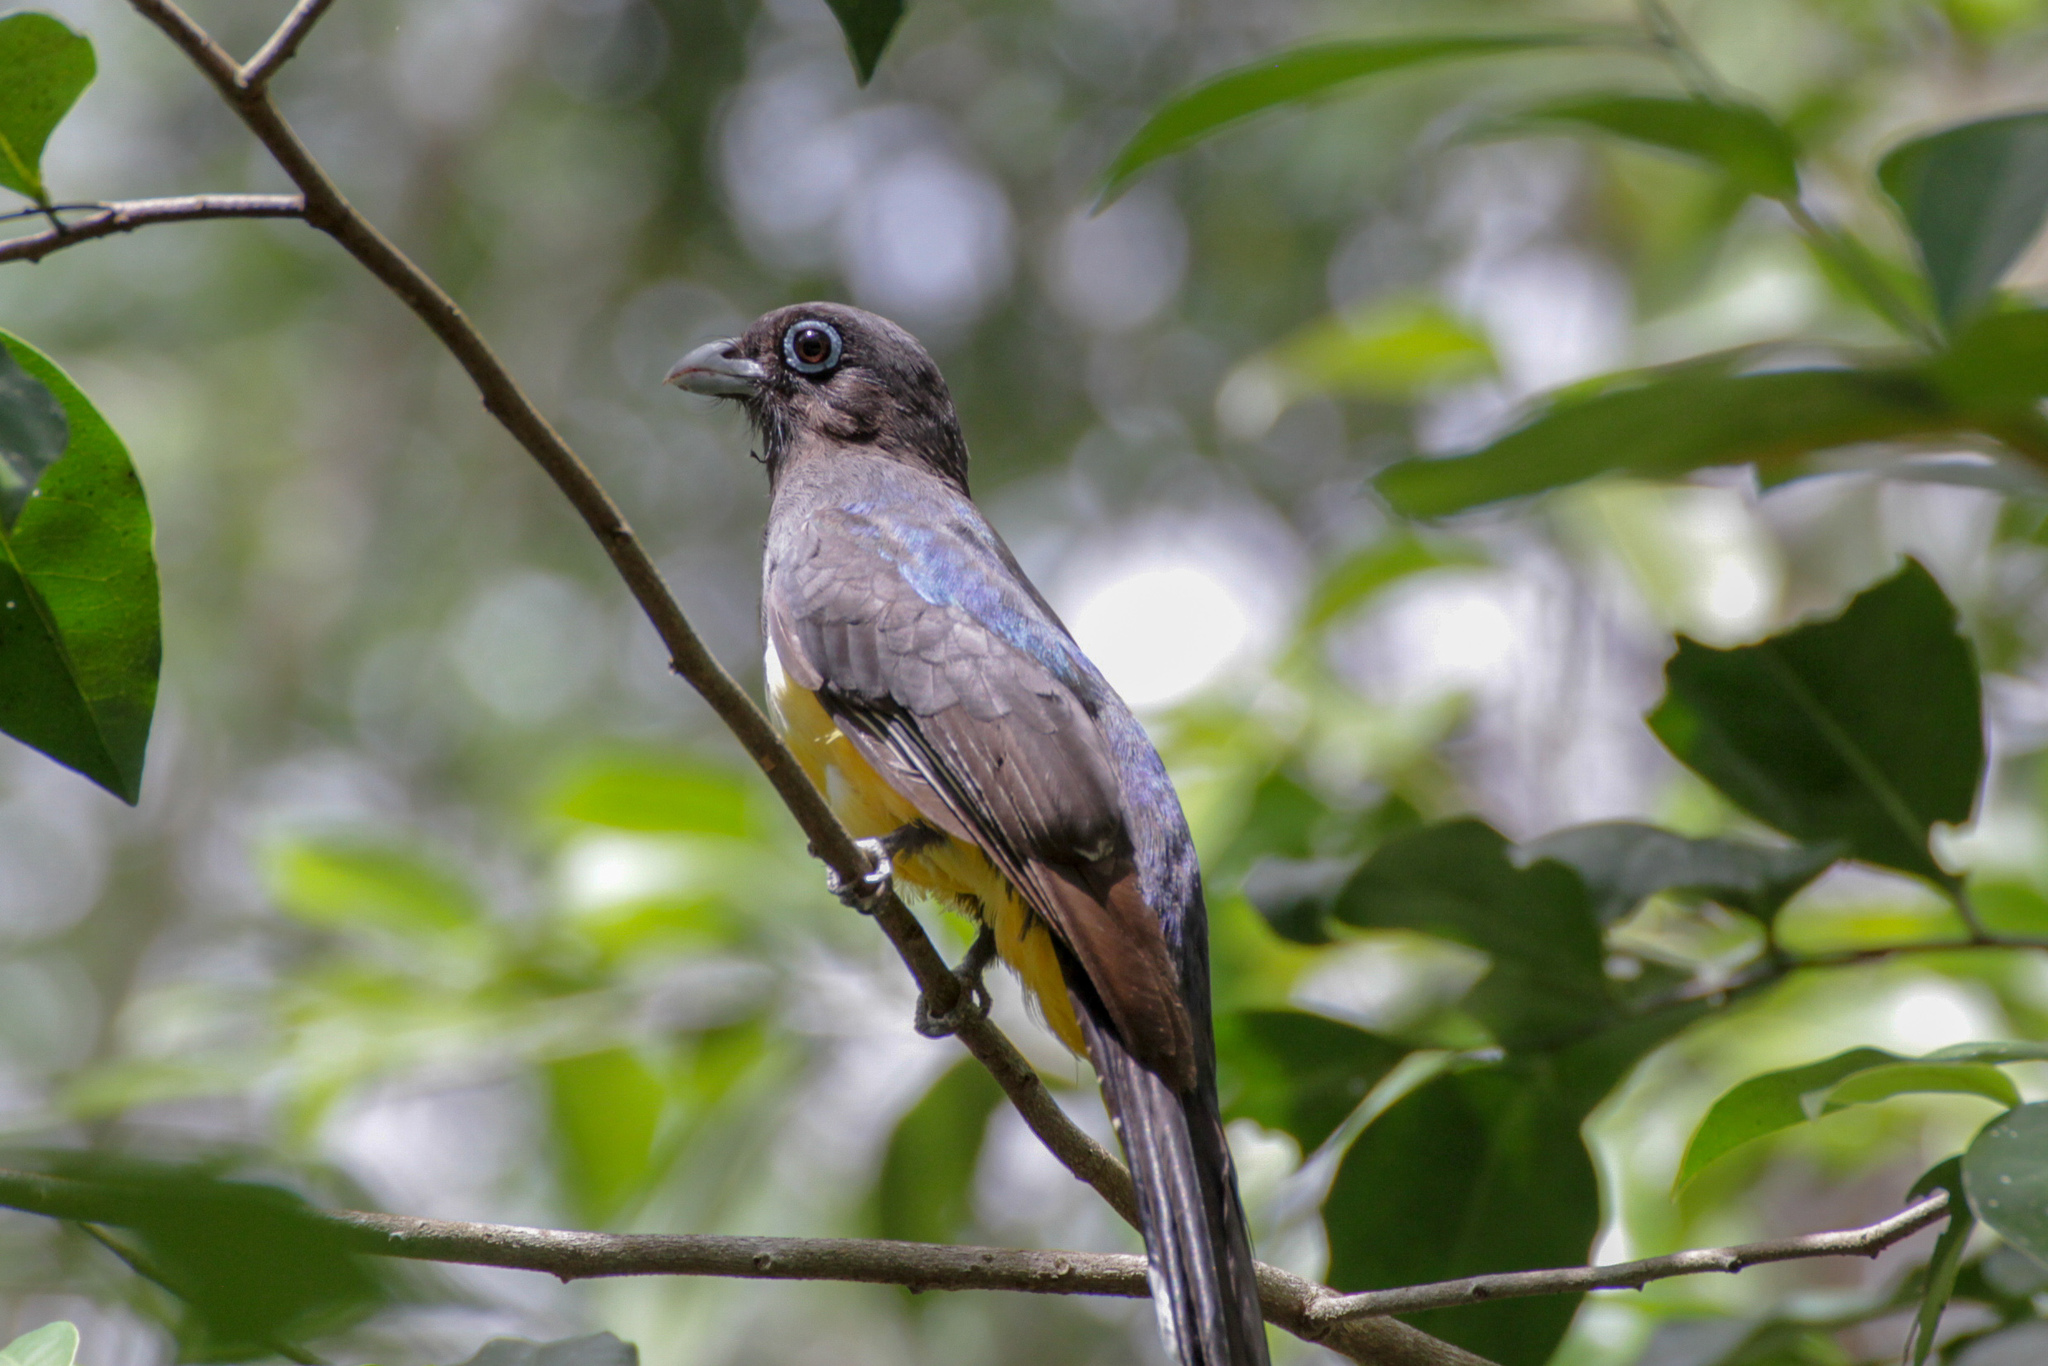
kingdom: Animalia
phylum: Chordata
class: Aves
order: Trogoniformes
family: Trogonidae
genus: Trogon
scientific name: Trogon melanocephalus
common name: Black-headed trogon
